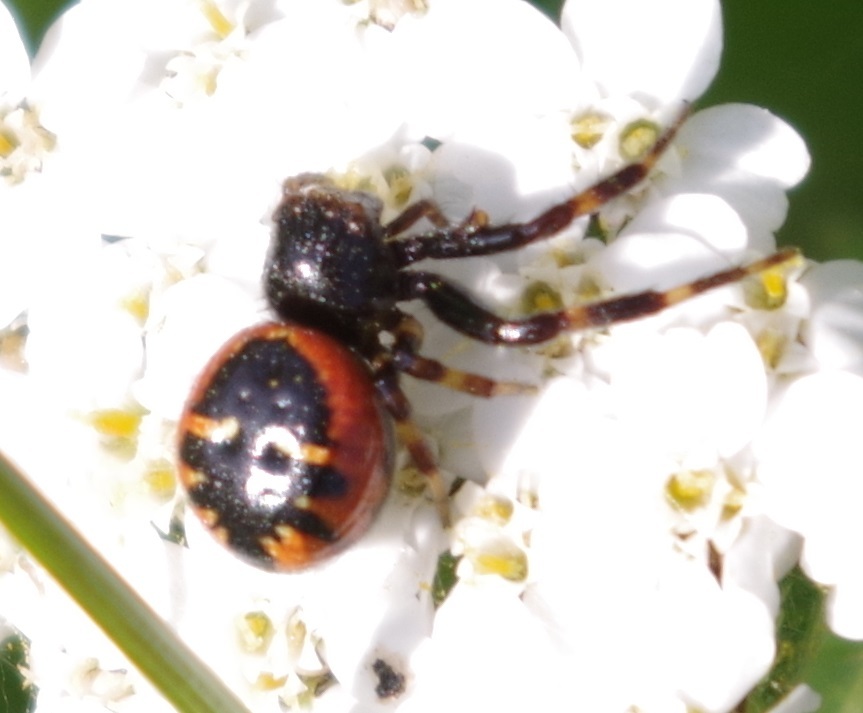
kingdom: Animalia
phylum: Arthropoda
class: Arachnida
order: Araneae
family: Thomisidae
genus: Synema
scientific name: Synema globosum
